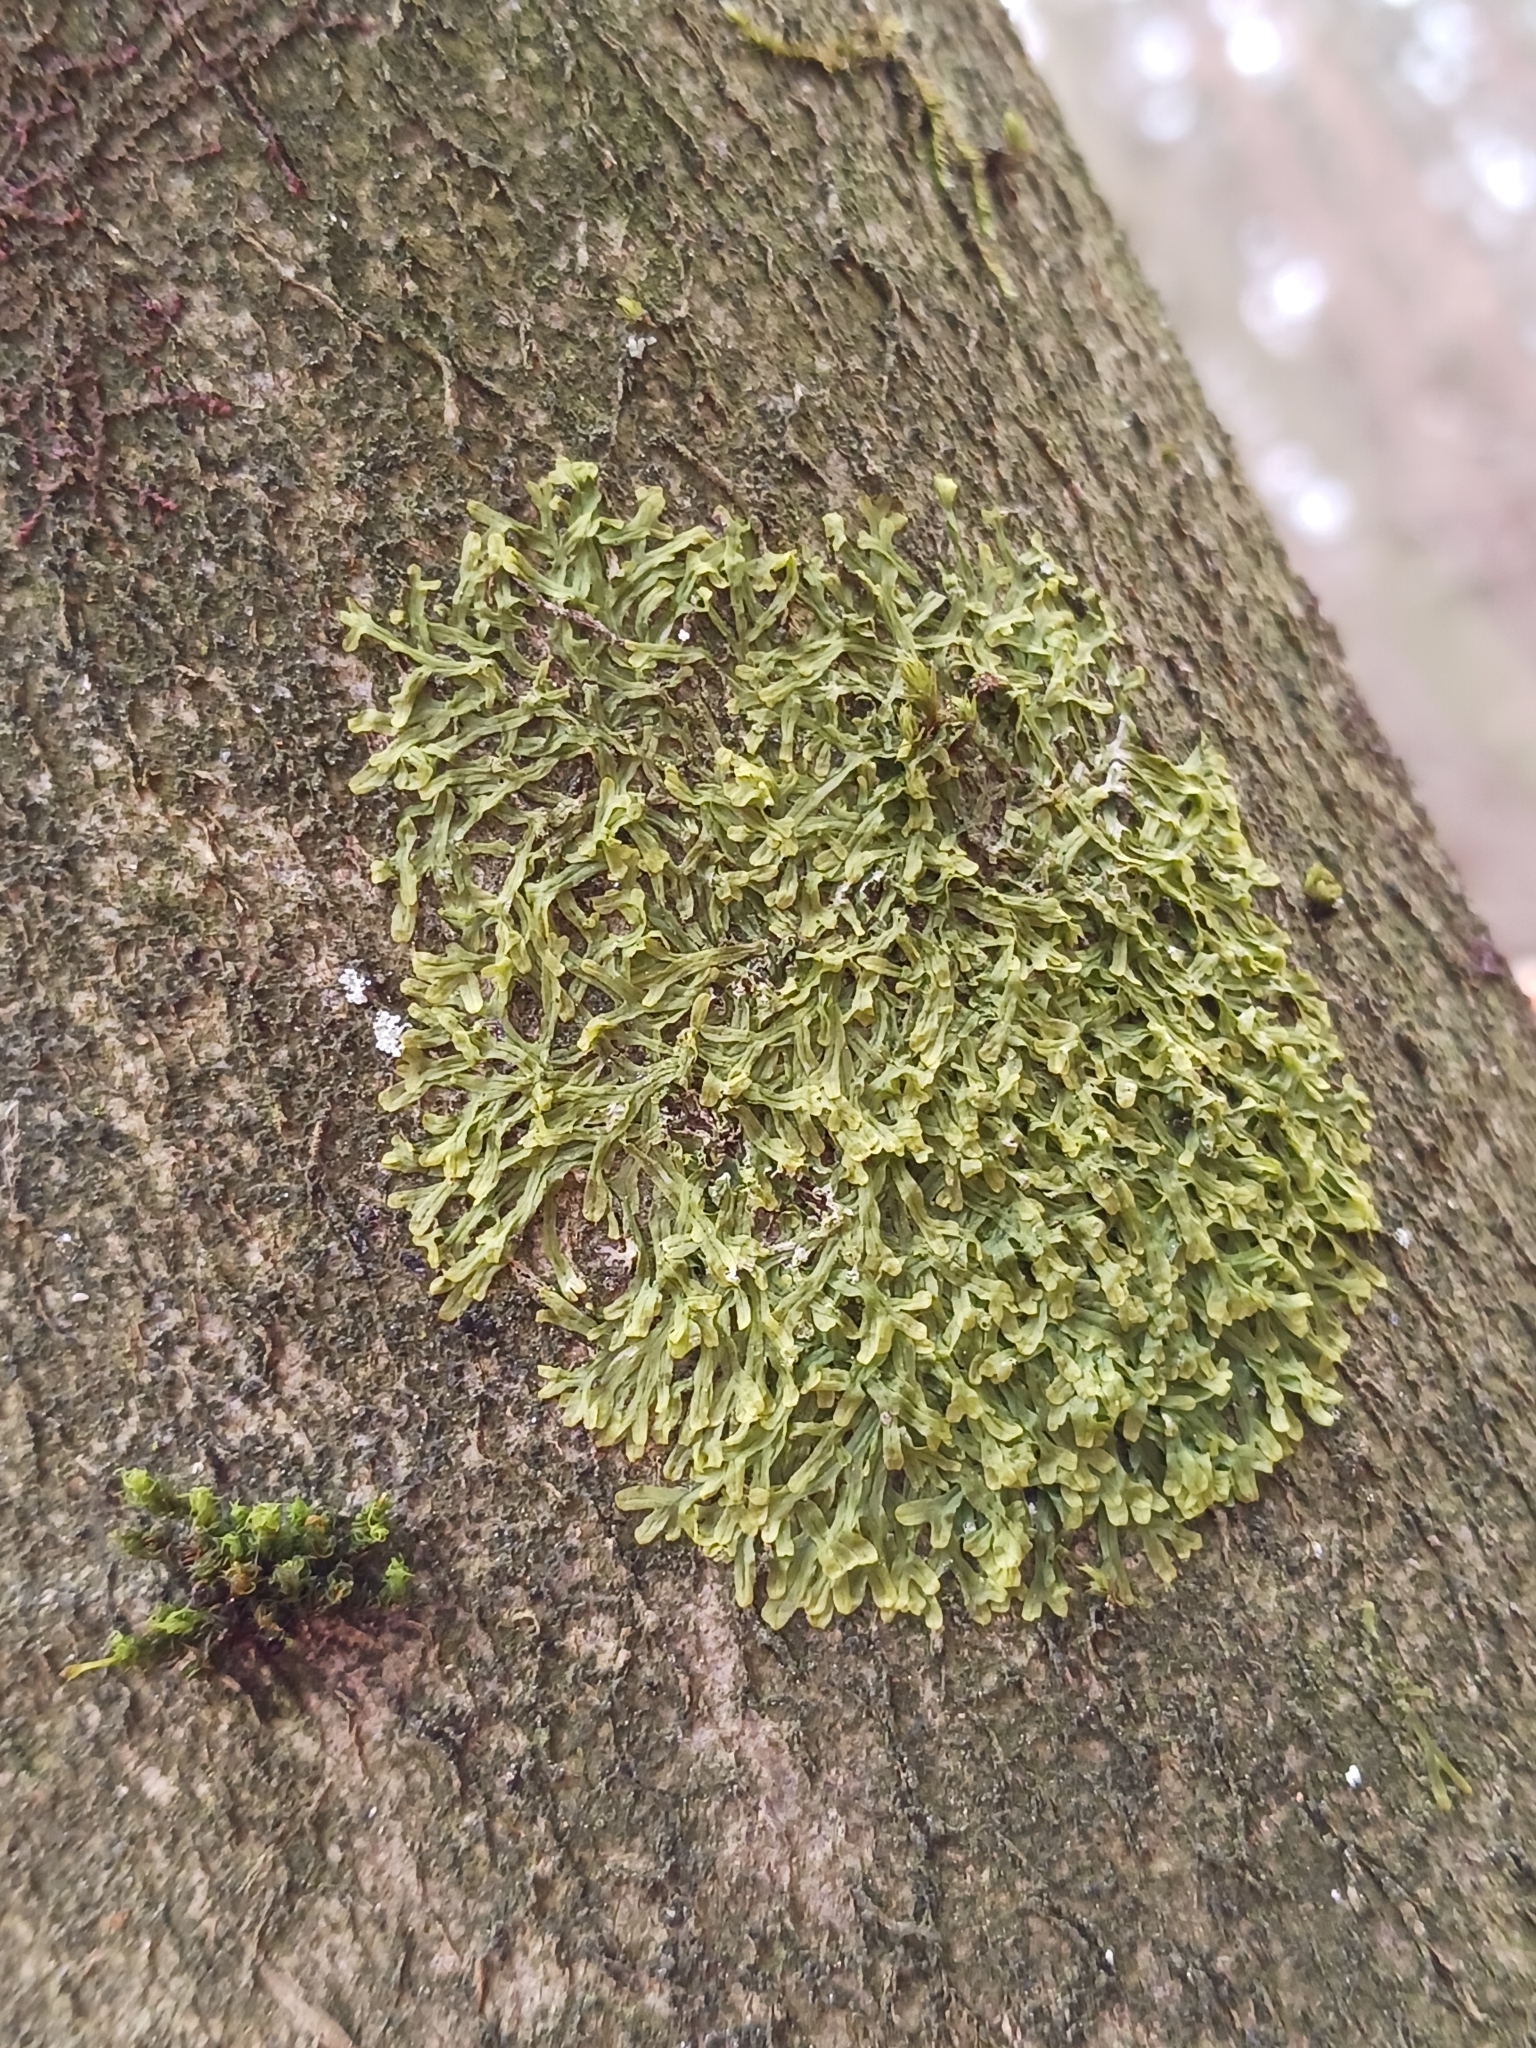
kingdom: Plantae
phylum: Marchantiophyta
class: Jungermanniopsida
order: Metzgeriales
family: Metzgeriaceae
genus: Metzgeria
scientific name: Metzgeria furcata
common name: Forked veilwort
